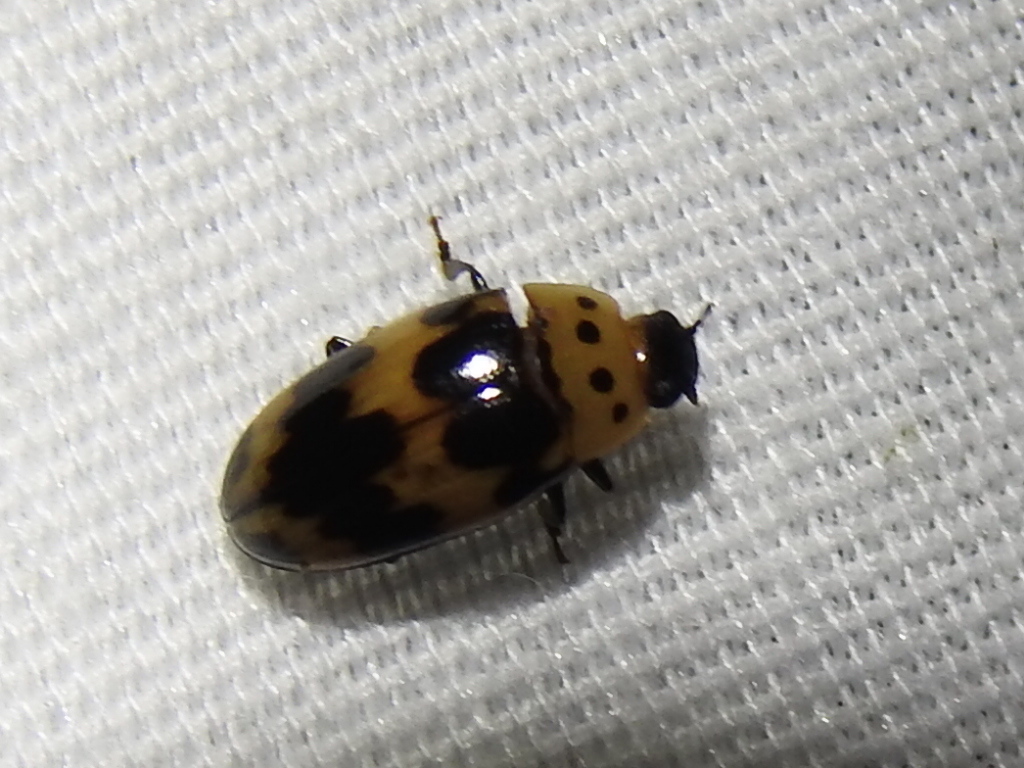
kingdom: Animalia
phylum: Arthropoda
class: Insecta
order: Coleoptera
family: Erotylidae
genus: Ischyrus
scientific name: Ischyrus quadripunctatus
